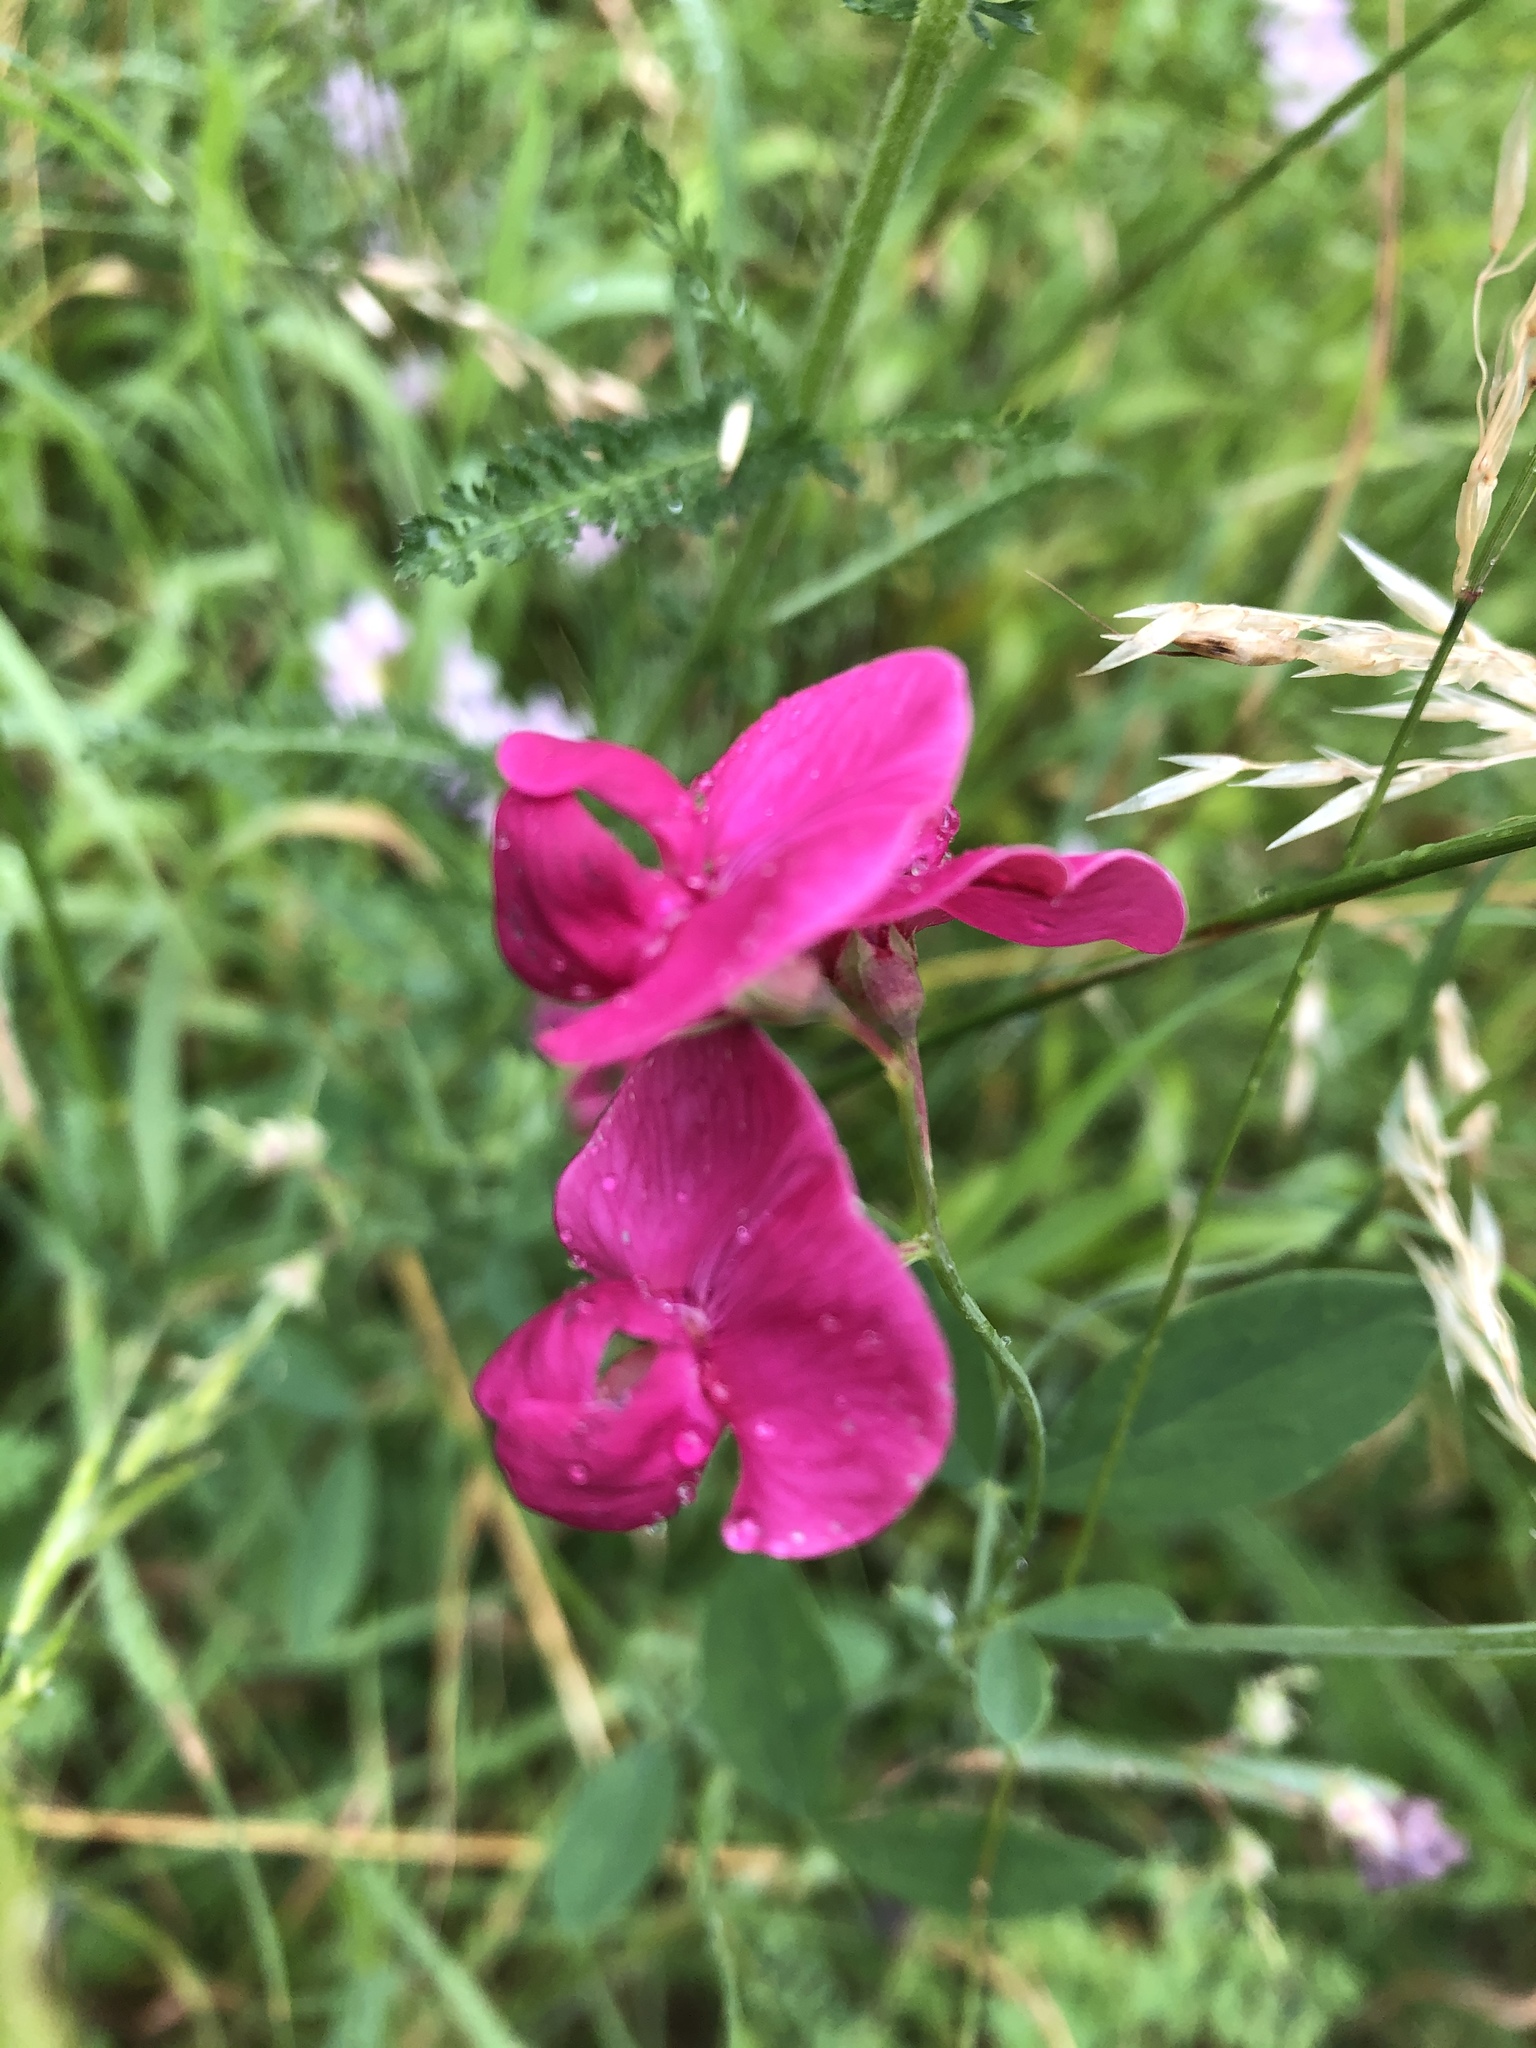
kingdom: Plantae
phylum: Tracheophyta
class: Magnoliopsida
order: Fabales
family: Fabaceae
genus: Lathyrus
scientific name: Lathyrus tuberosus
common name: Tuberous pea
